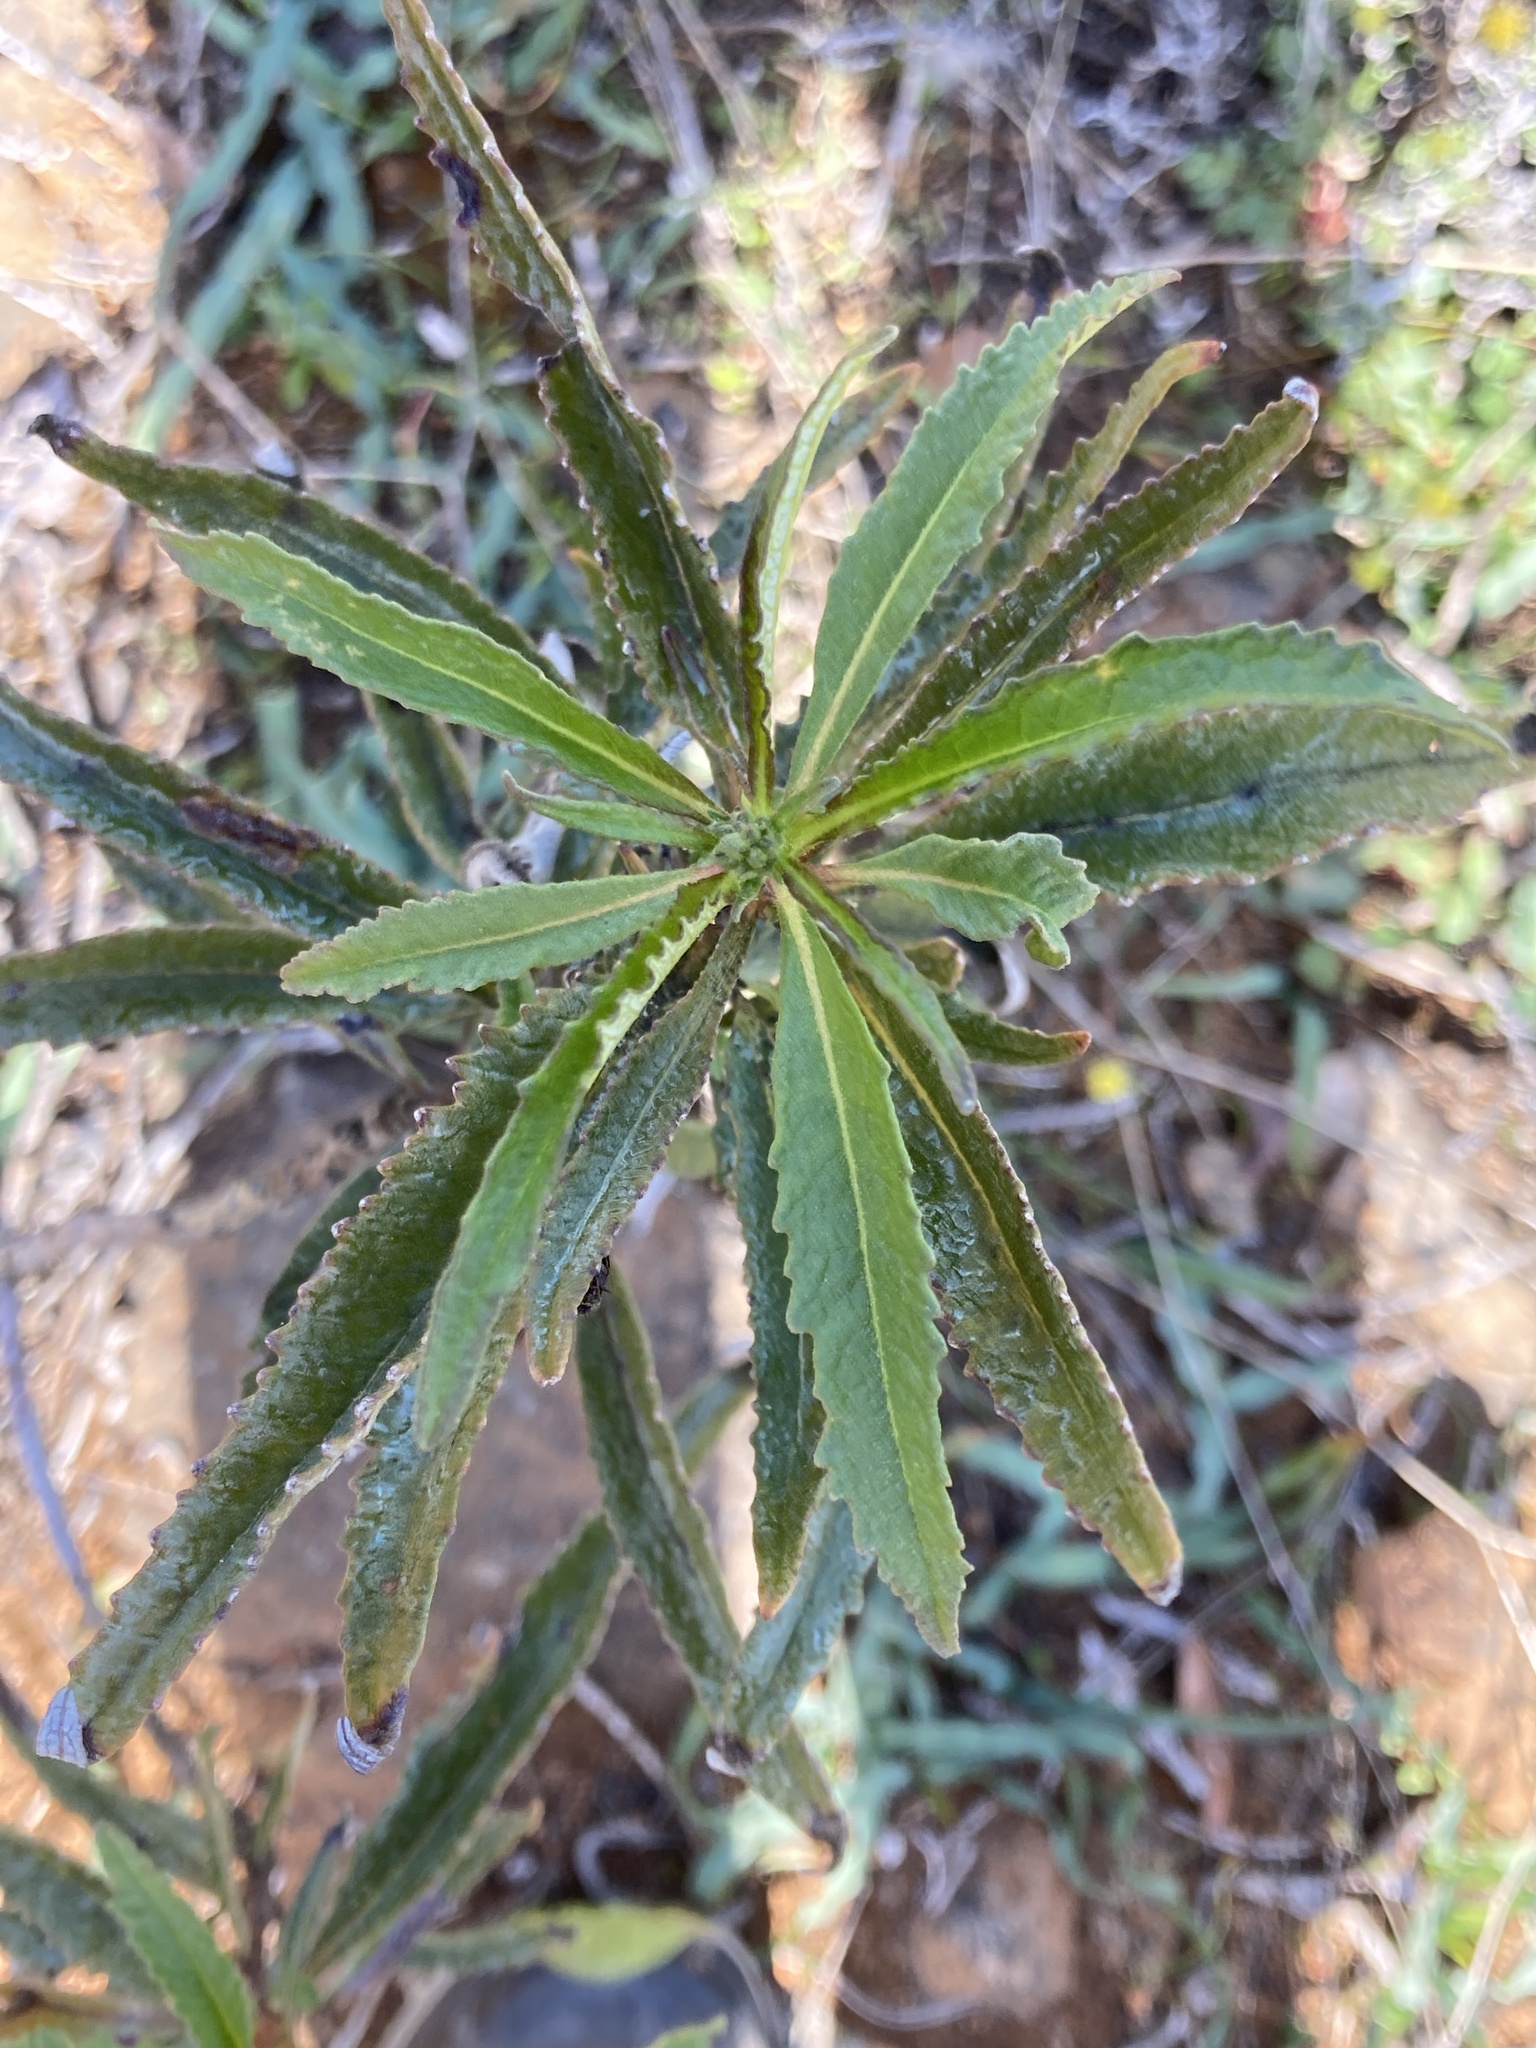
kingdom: Plantae
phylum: Tracheophyta
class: Magnoliopsida
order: Boraginales
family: Namaceae
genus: Eriodictyon
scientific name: Eriodictyon californicum
